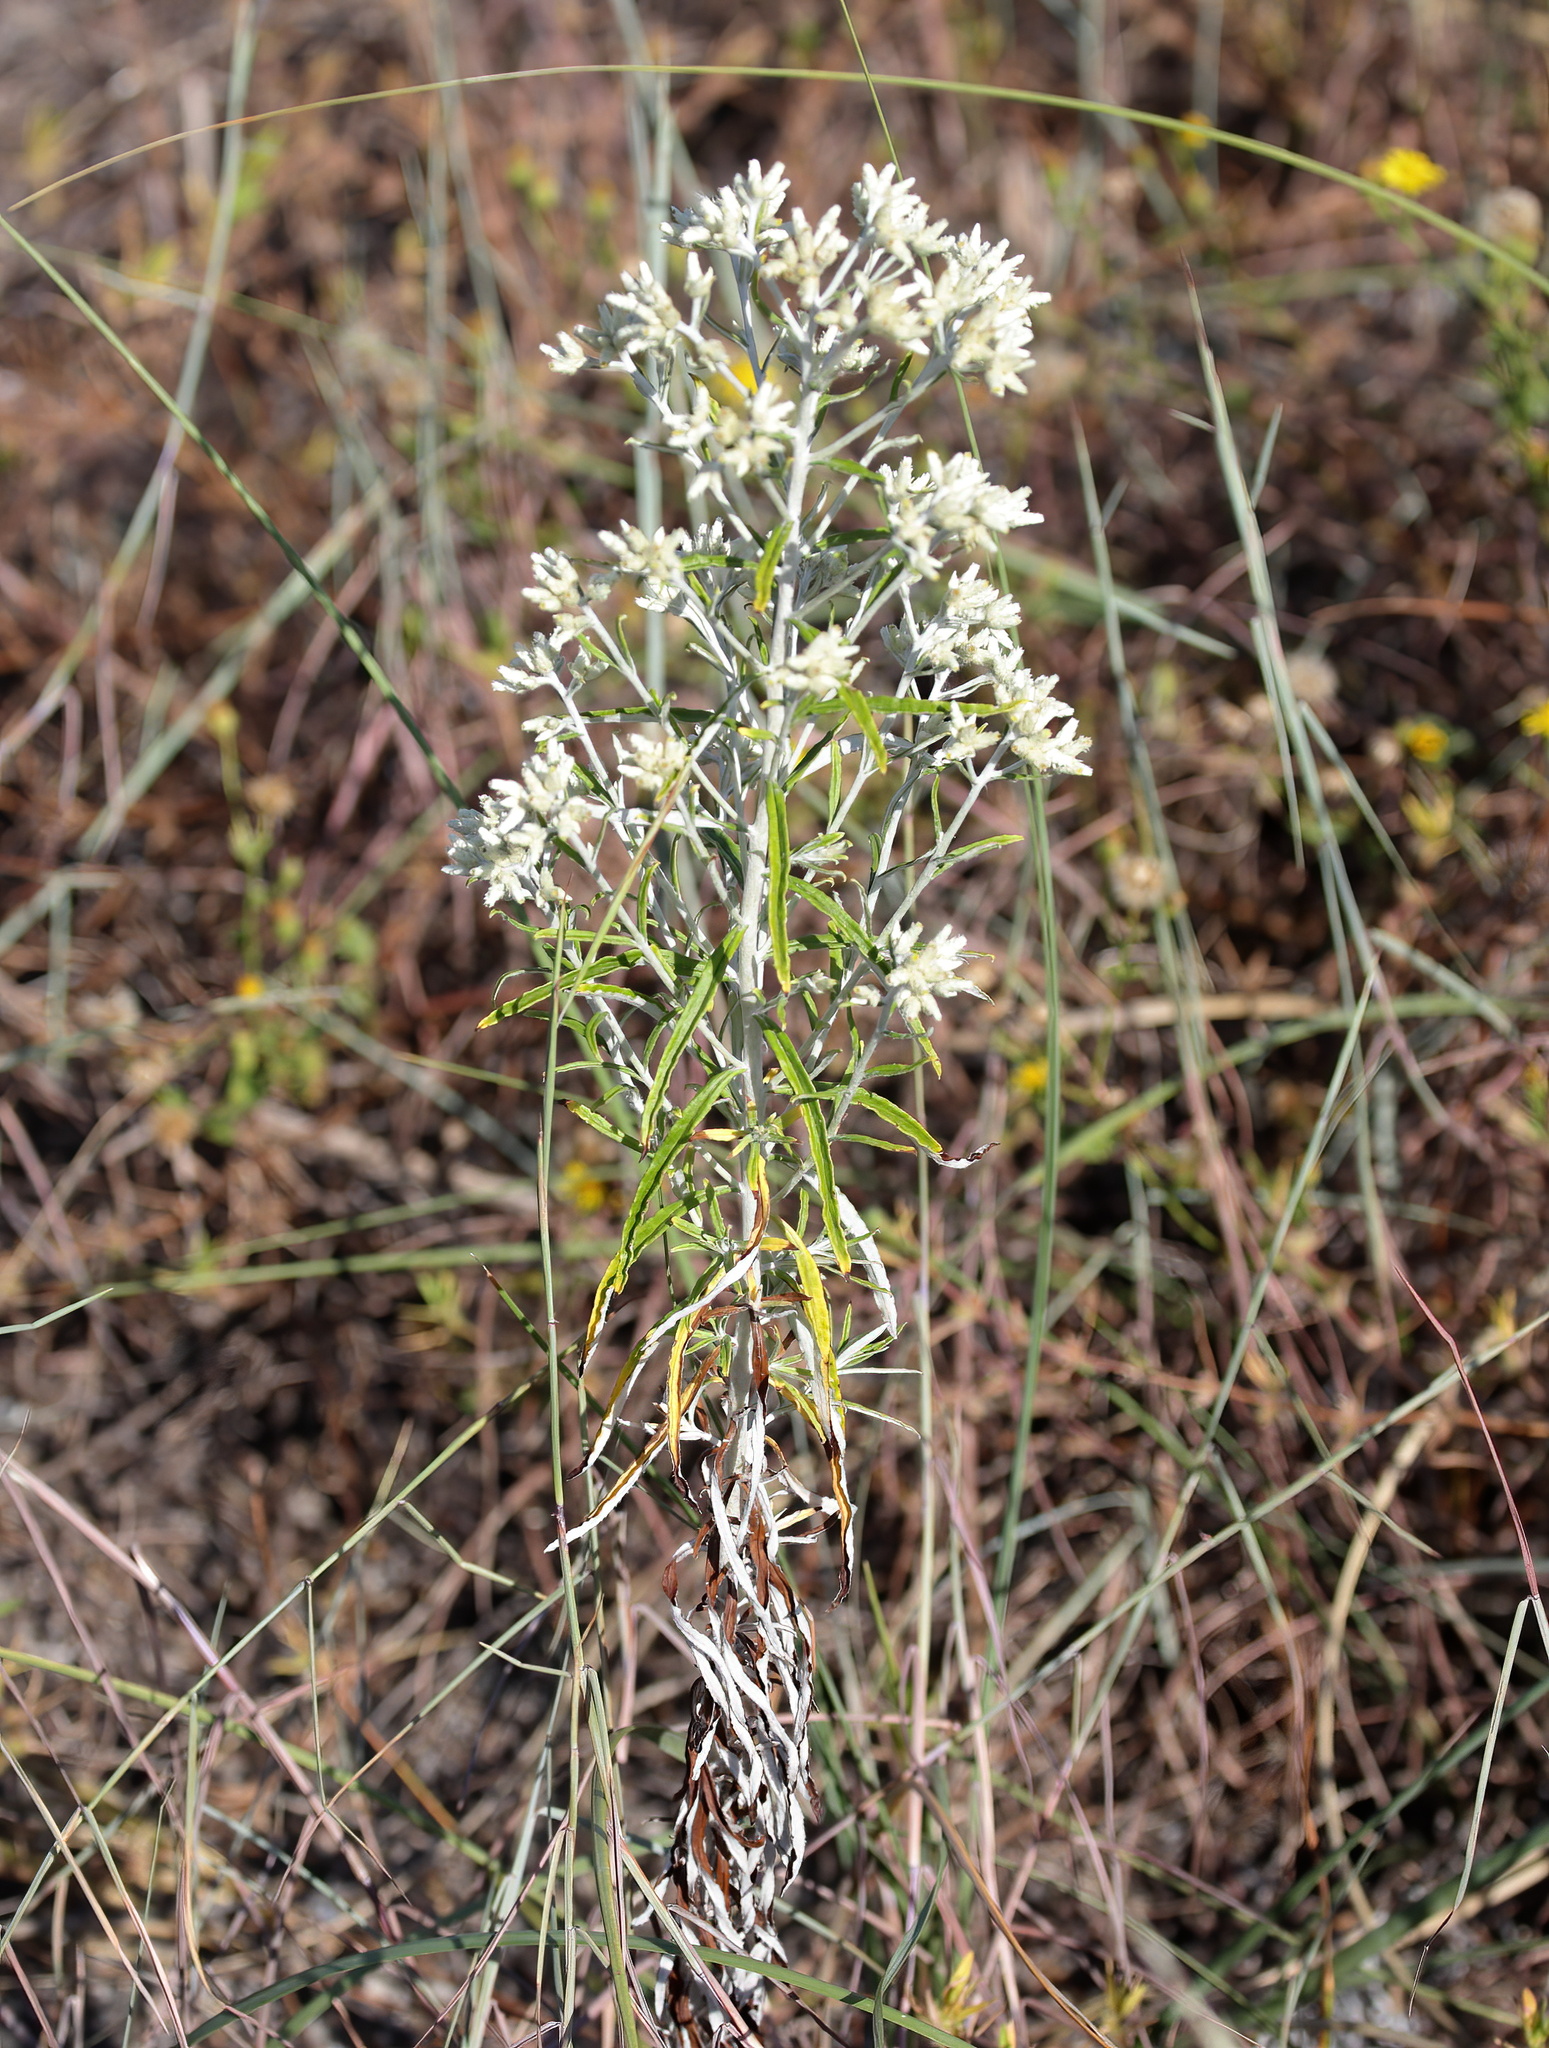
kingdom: Plantae
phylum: Tracheophyta
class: Magnoliopsida
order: Asterales
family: Asteraceae
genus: Pseudognaphalium
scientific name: Pseudognaphalium obtusifolium
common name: Eastern rabbit-tobacco
